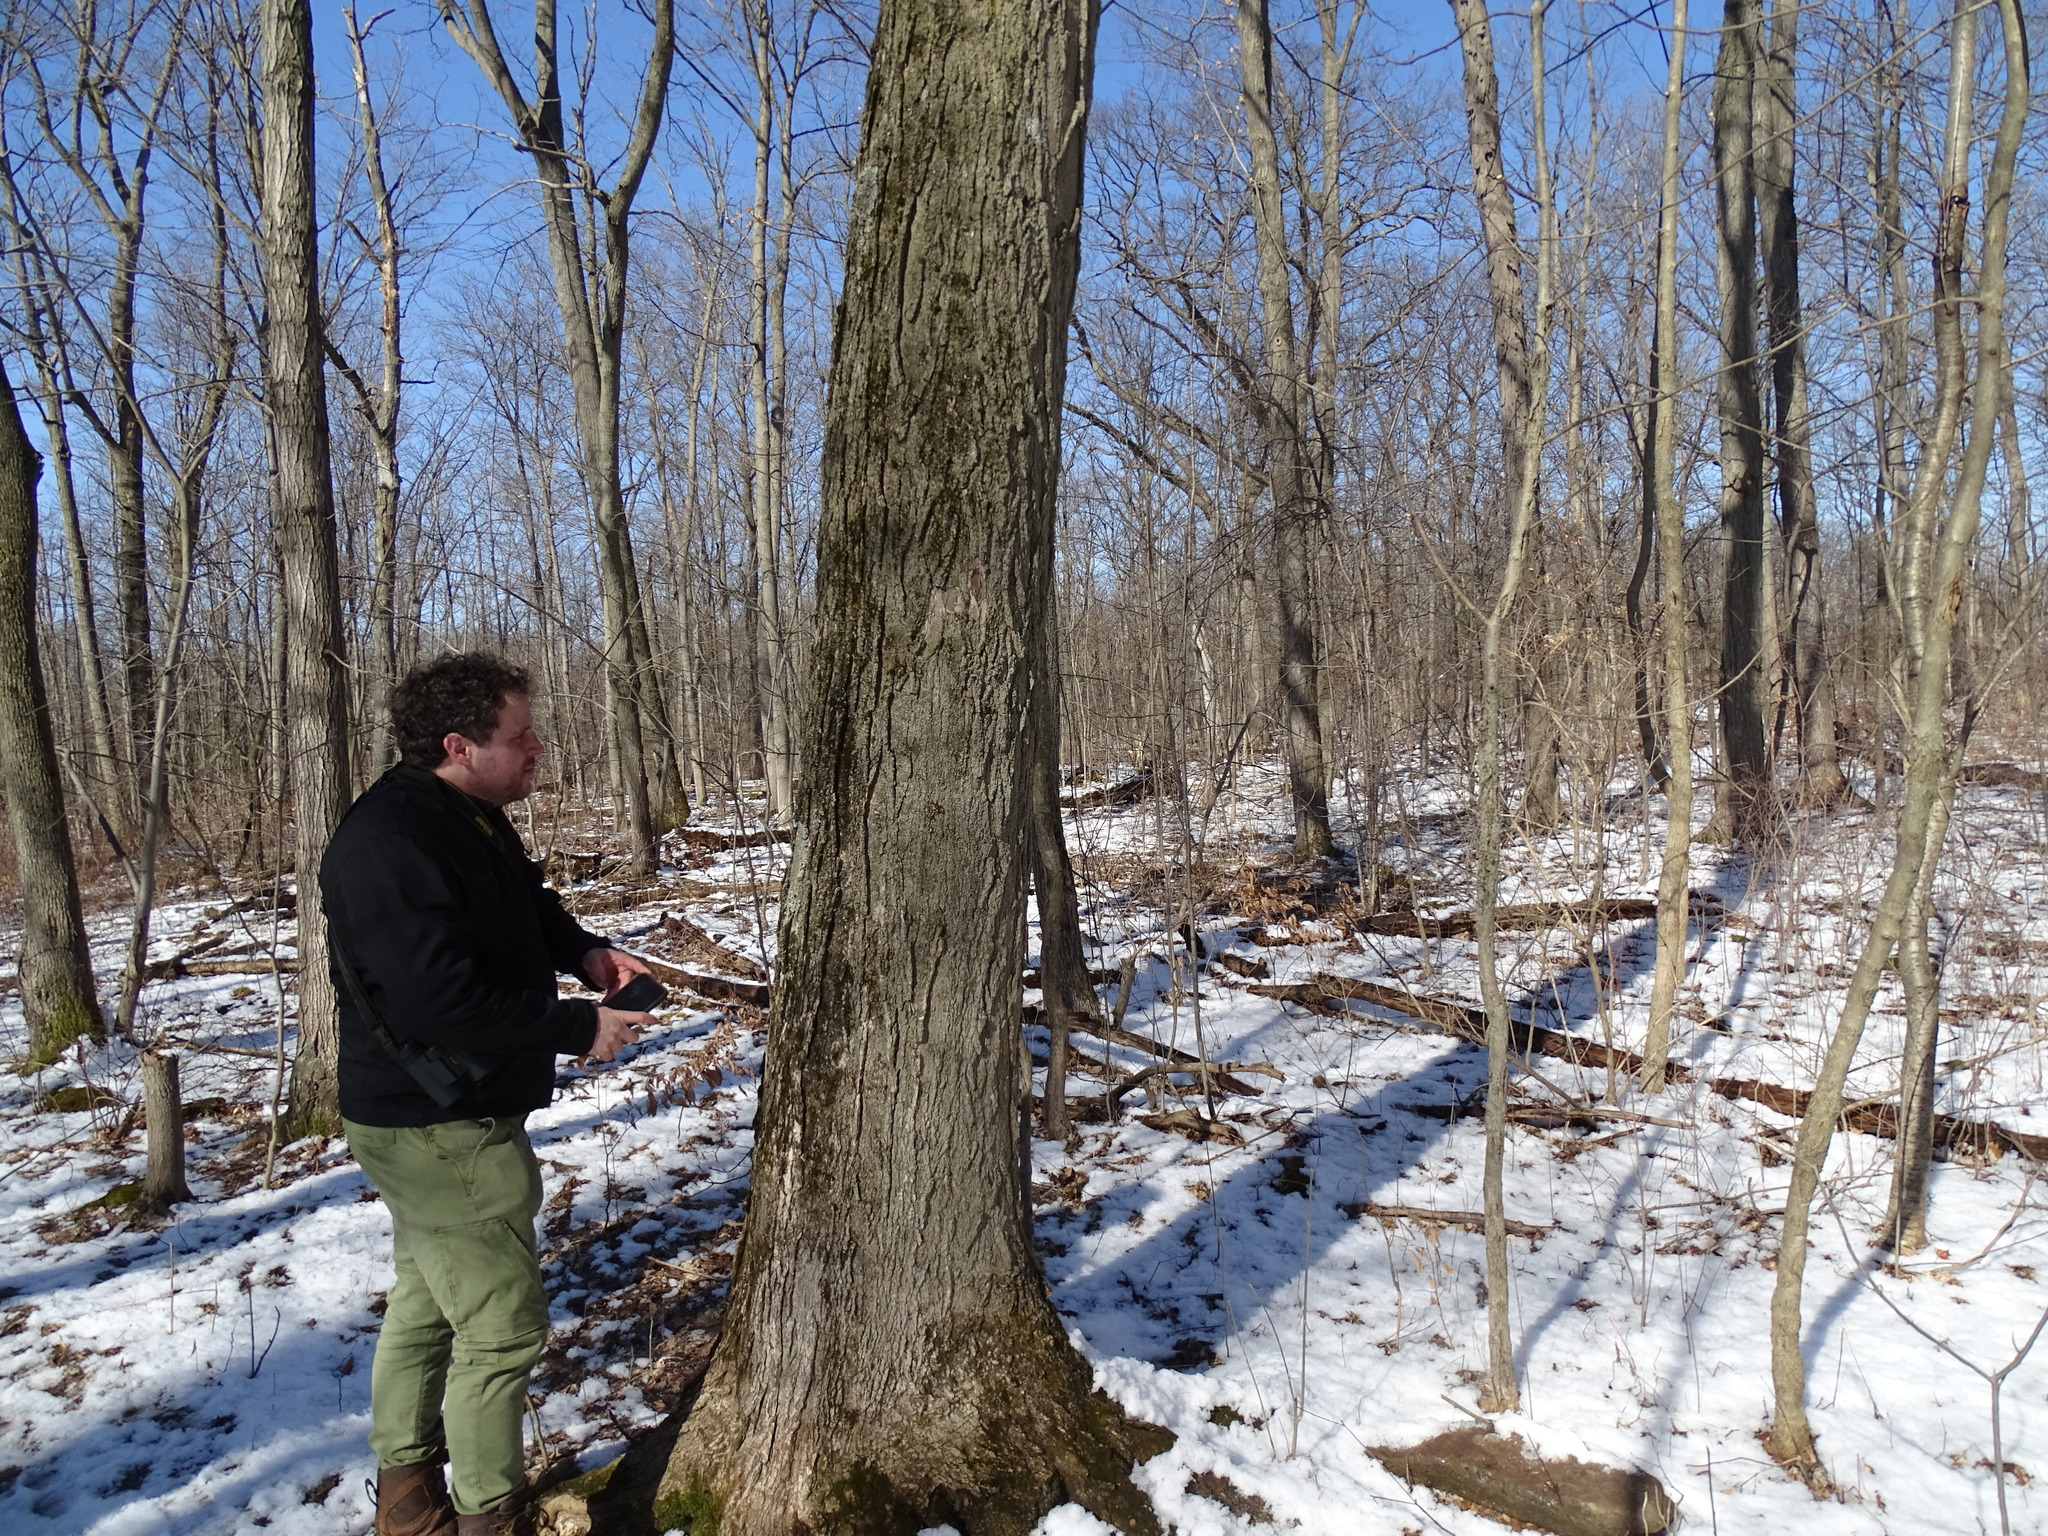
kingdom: Plantae
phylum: Tracheophyta
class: Magnoliopsida
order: Sapindales
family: Sapindaceae
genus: Acer
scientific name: Acer saccharum
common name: Sugar maple
